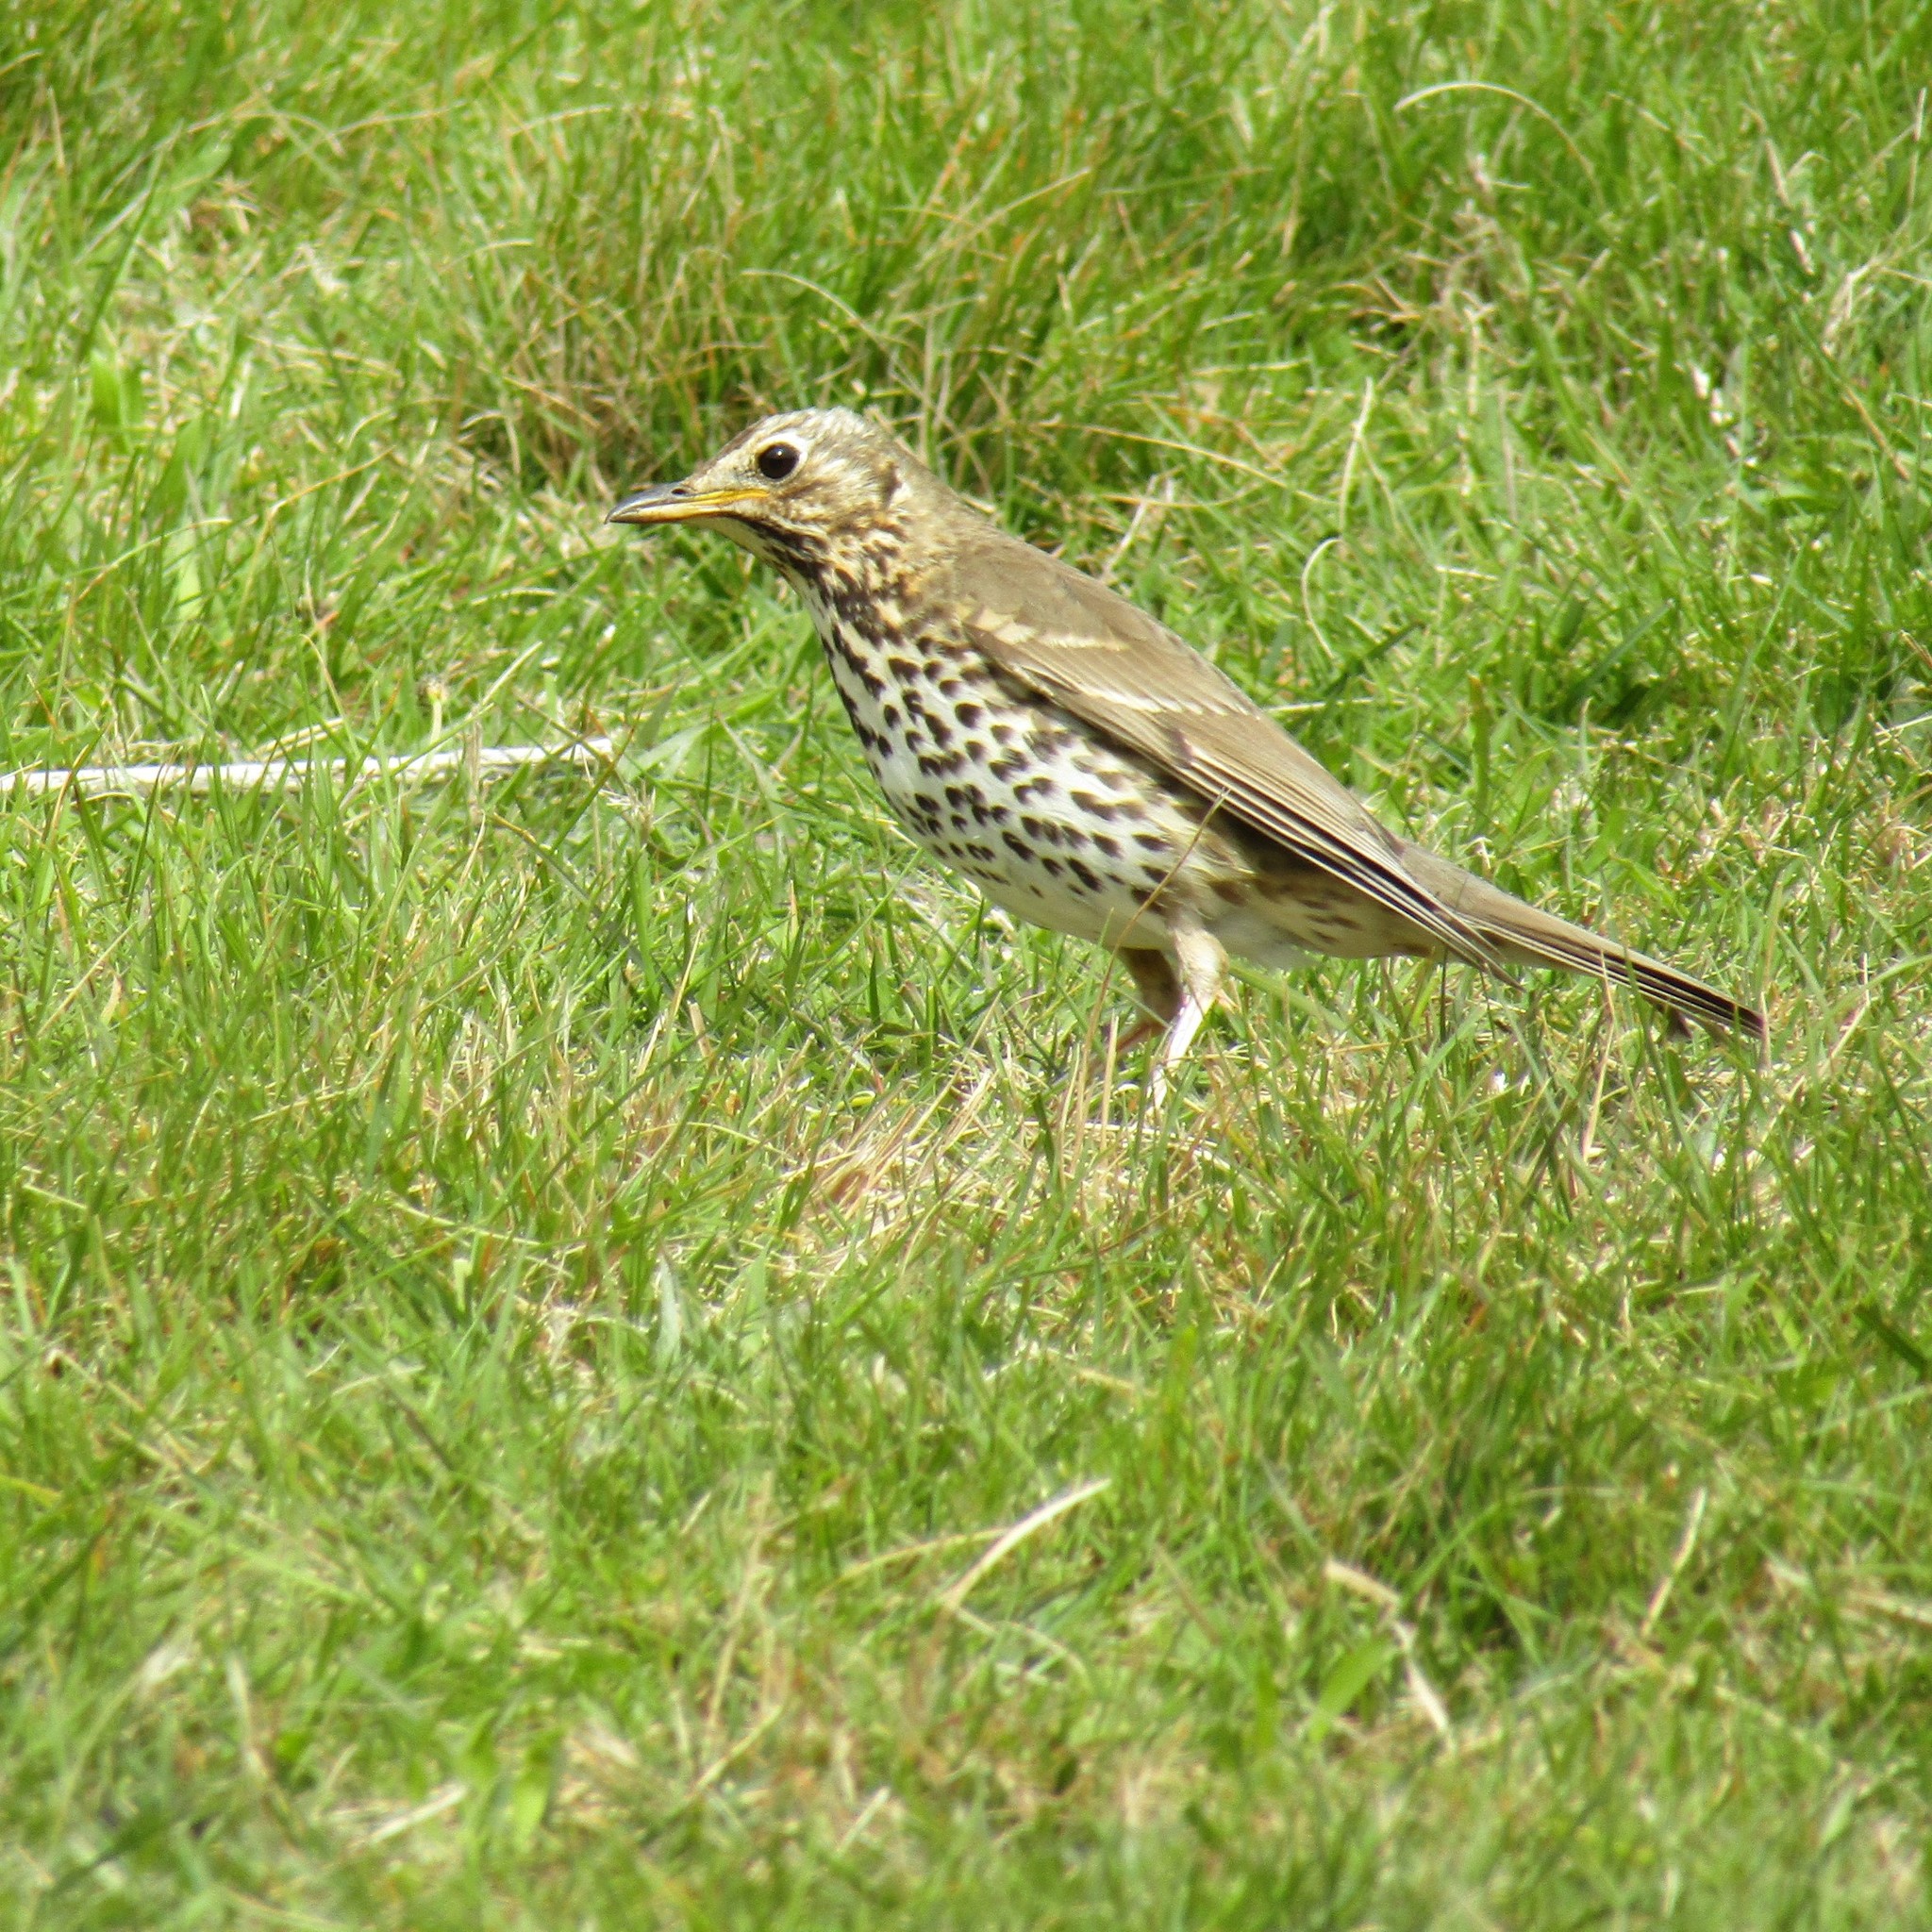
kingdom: Animalia
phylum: Chordata
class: Aves
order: Passeriformes
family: Turdidae
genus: Turdus
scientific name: Turdus philomelos
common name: Song thrush
